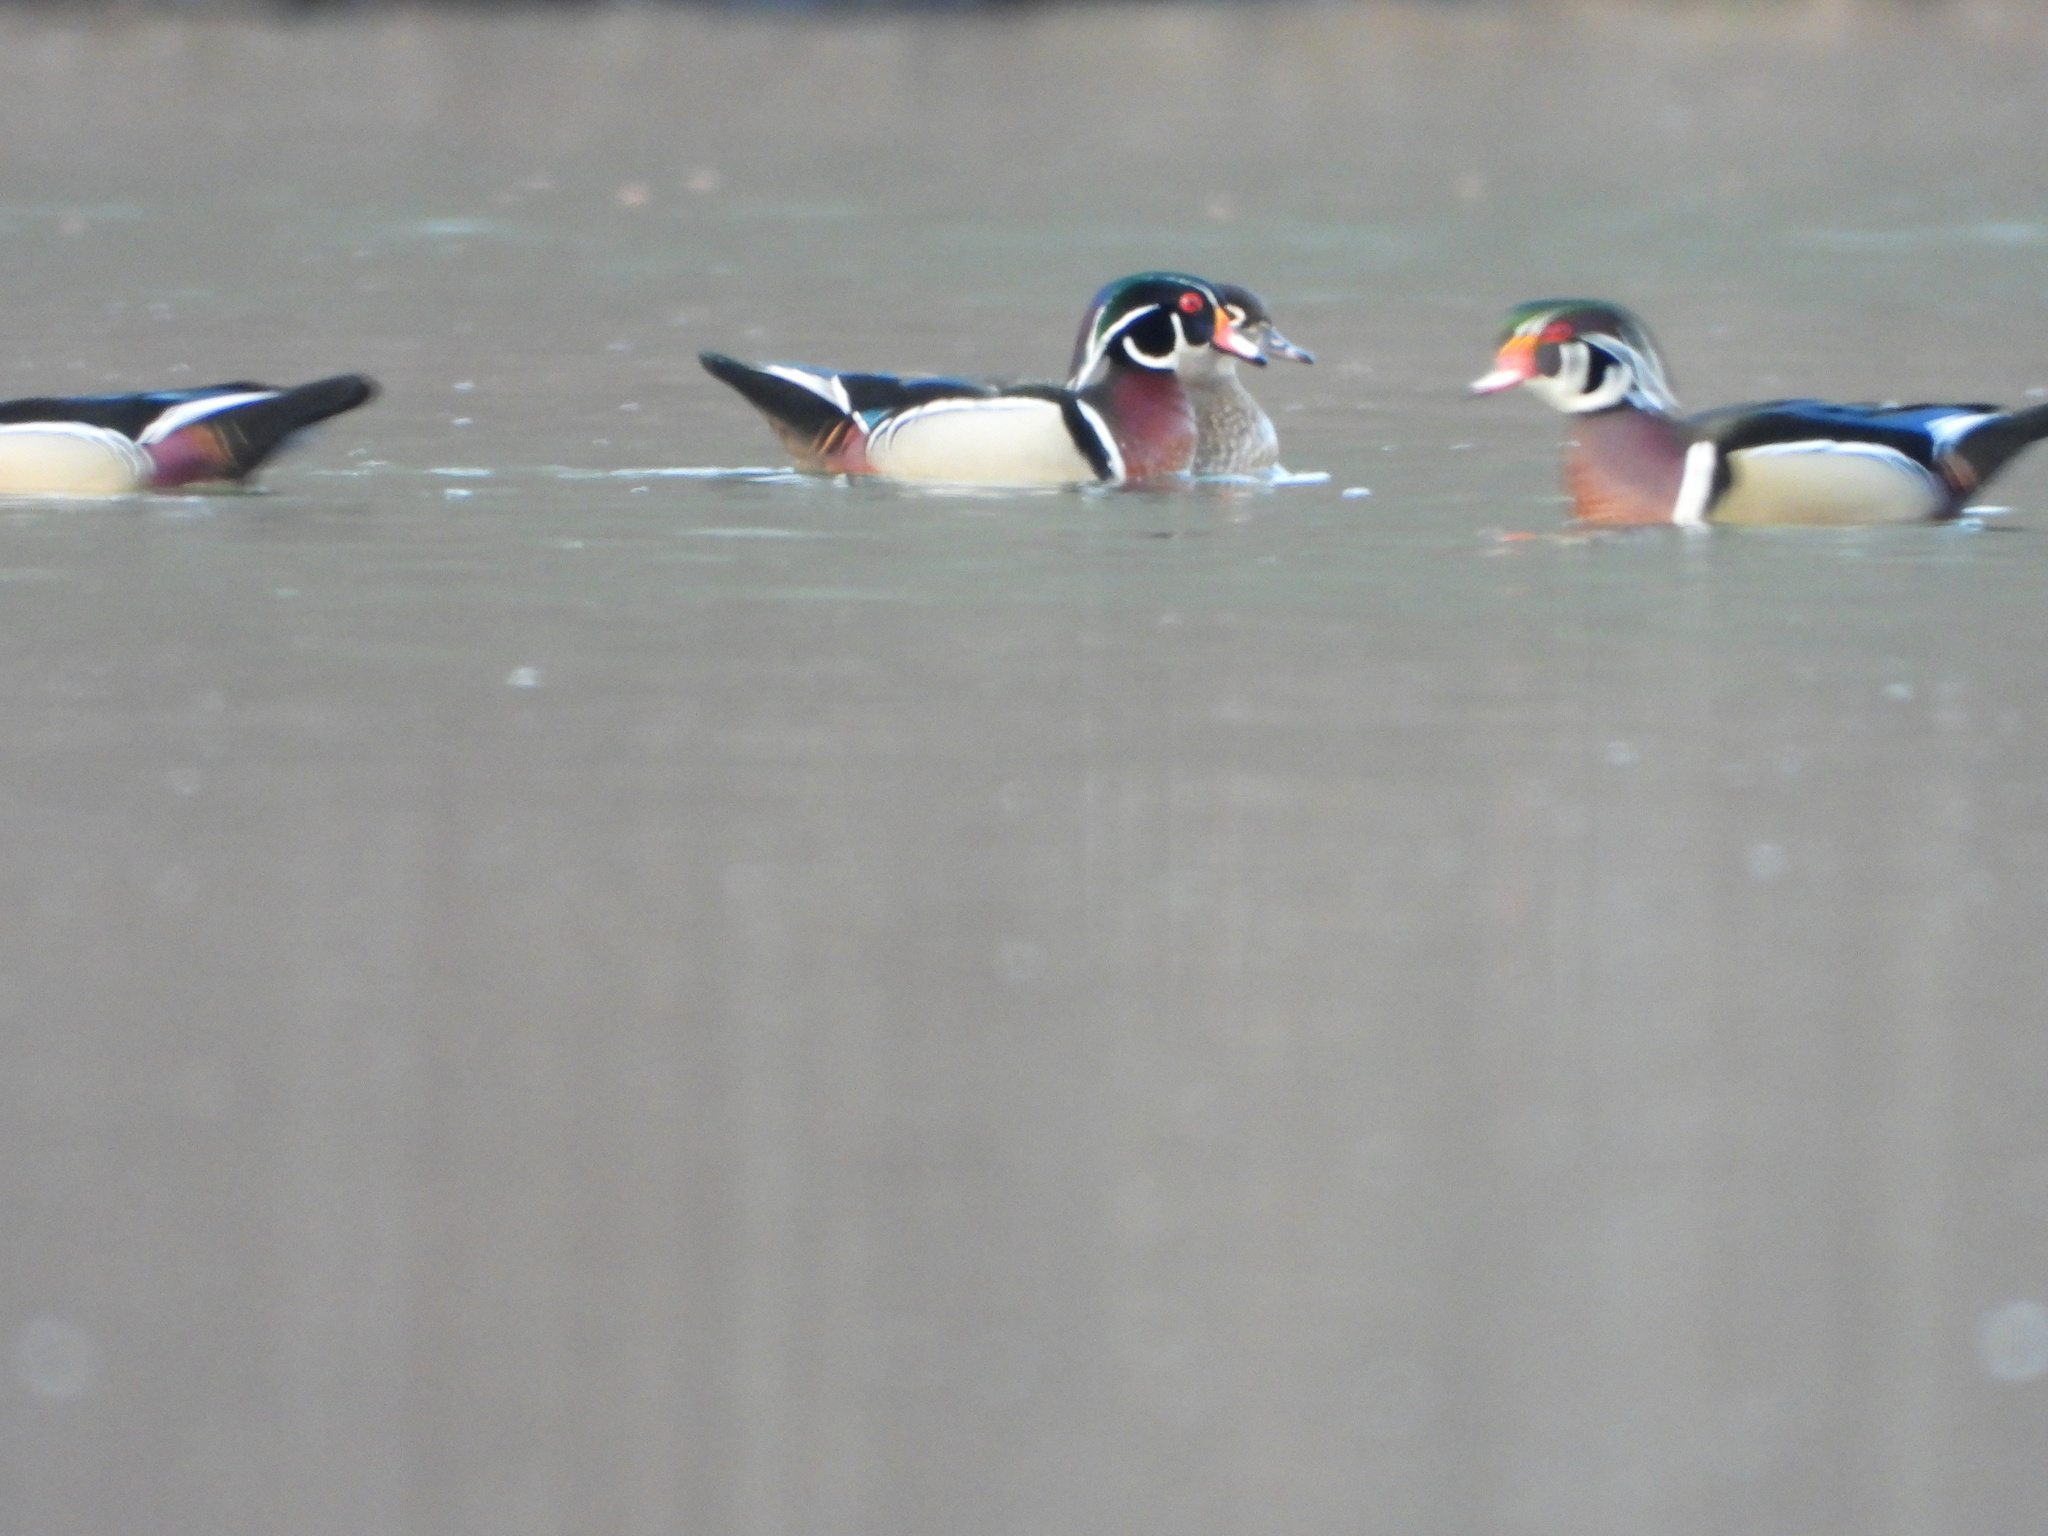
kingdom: Animalia
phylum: Chordata
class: Aves
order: Anseriformes
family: Anatidae
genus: Aix
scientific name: Aix sponsa
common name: Wood duck
